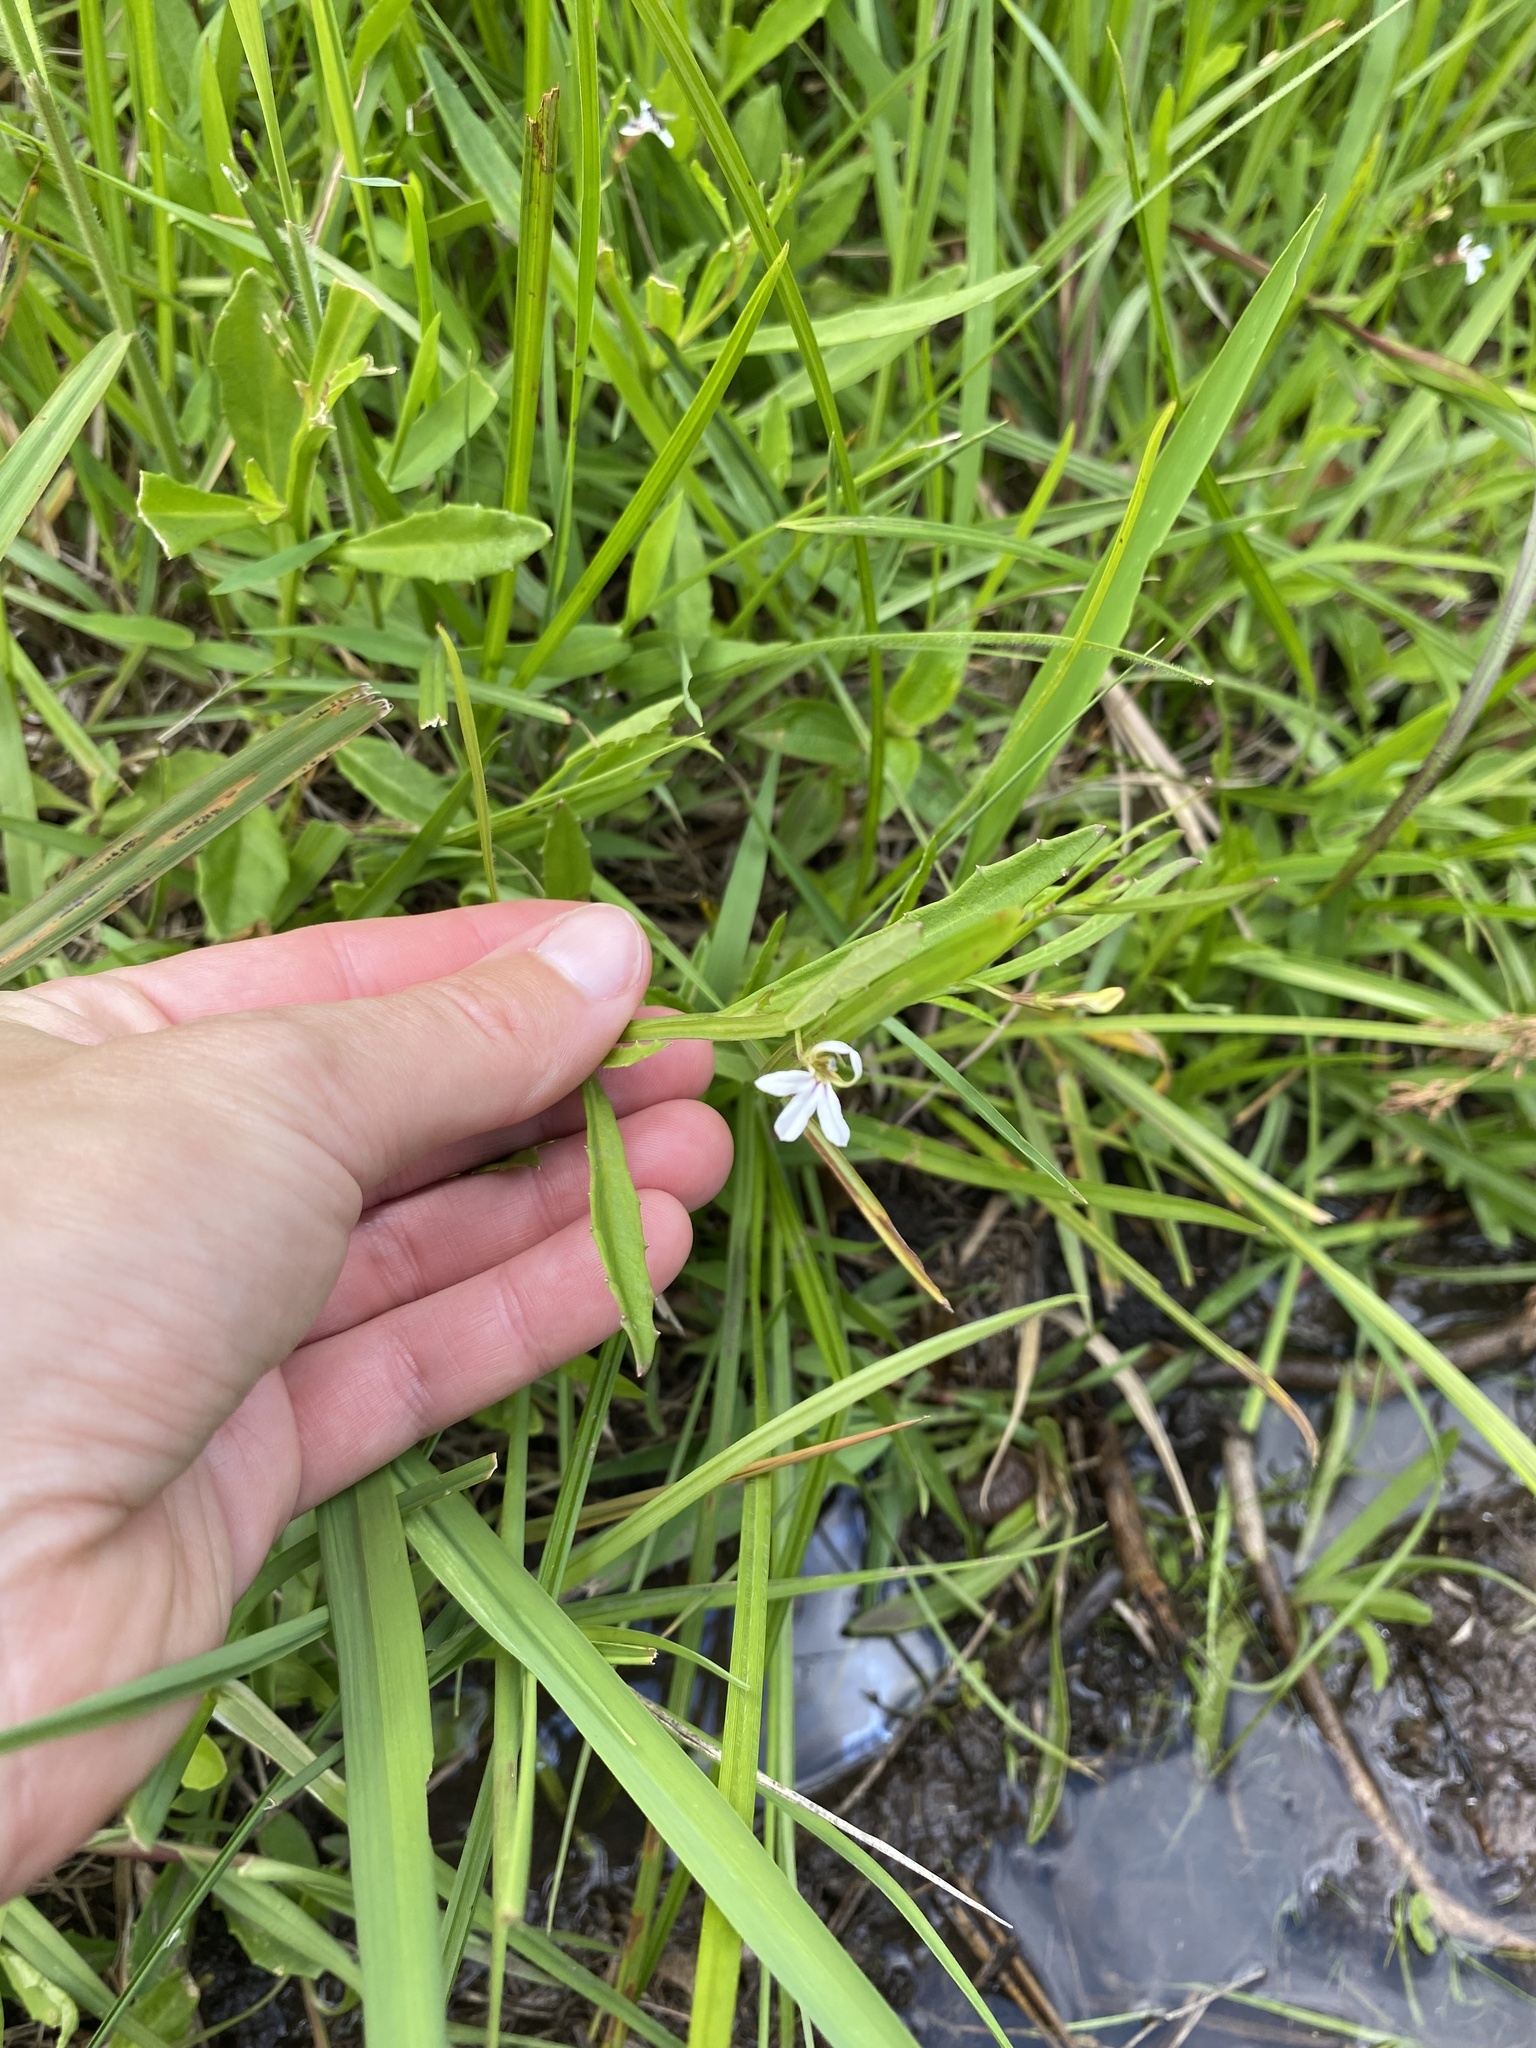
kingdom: Plantae
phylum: Tracheophyta
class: Magnoliopsida
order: Asterales
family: Campanulaceae
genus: Lobelia
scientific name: Lobelia anceps
